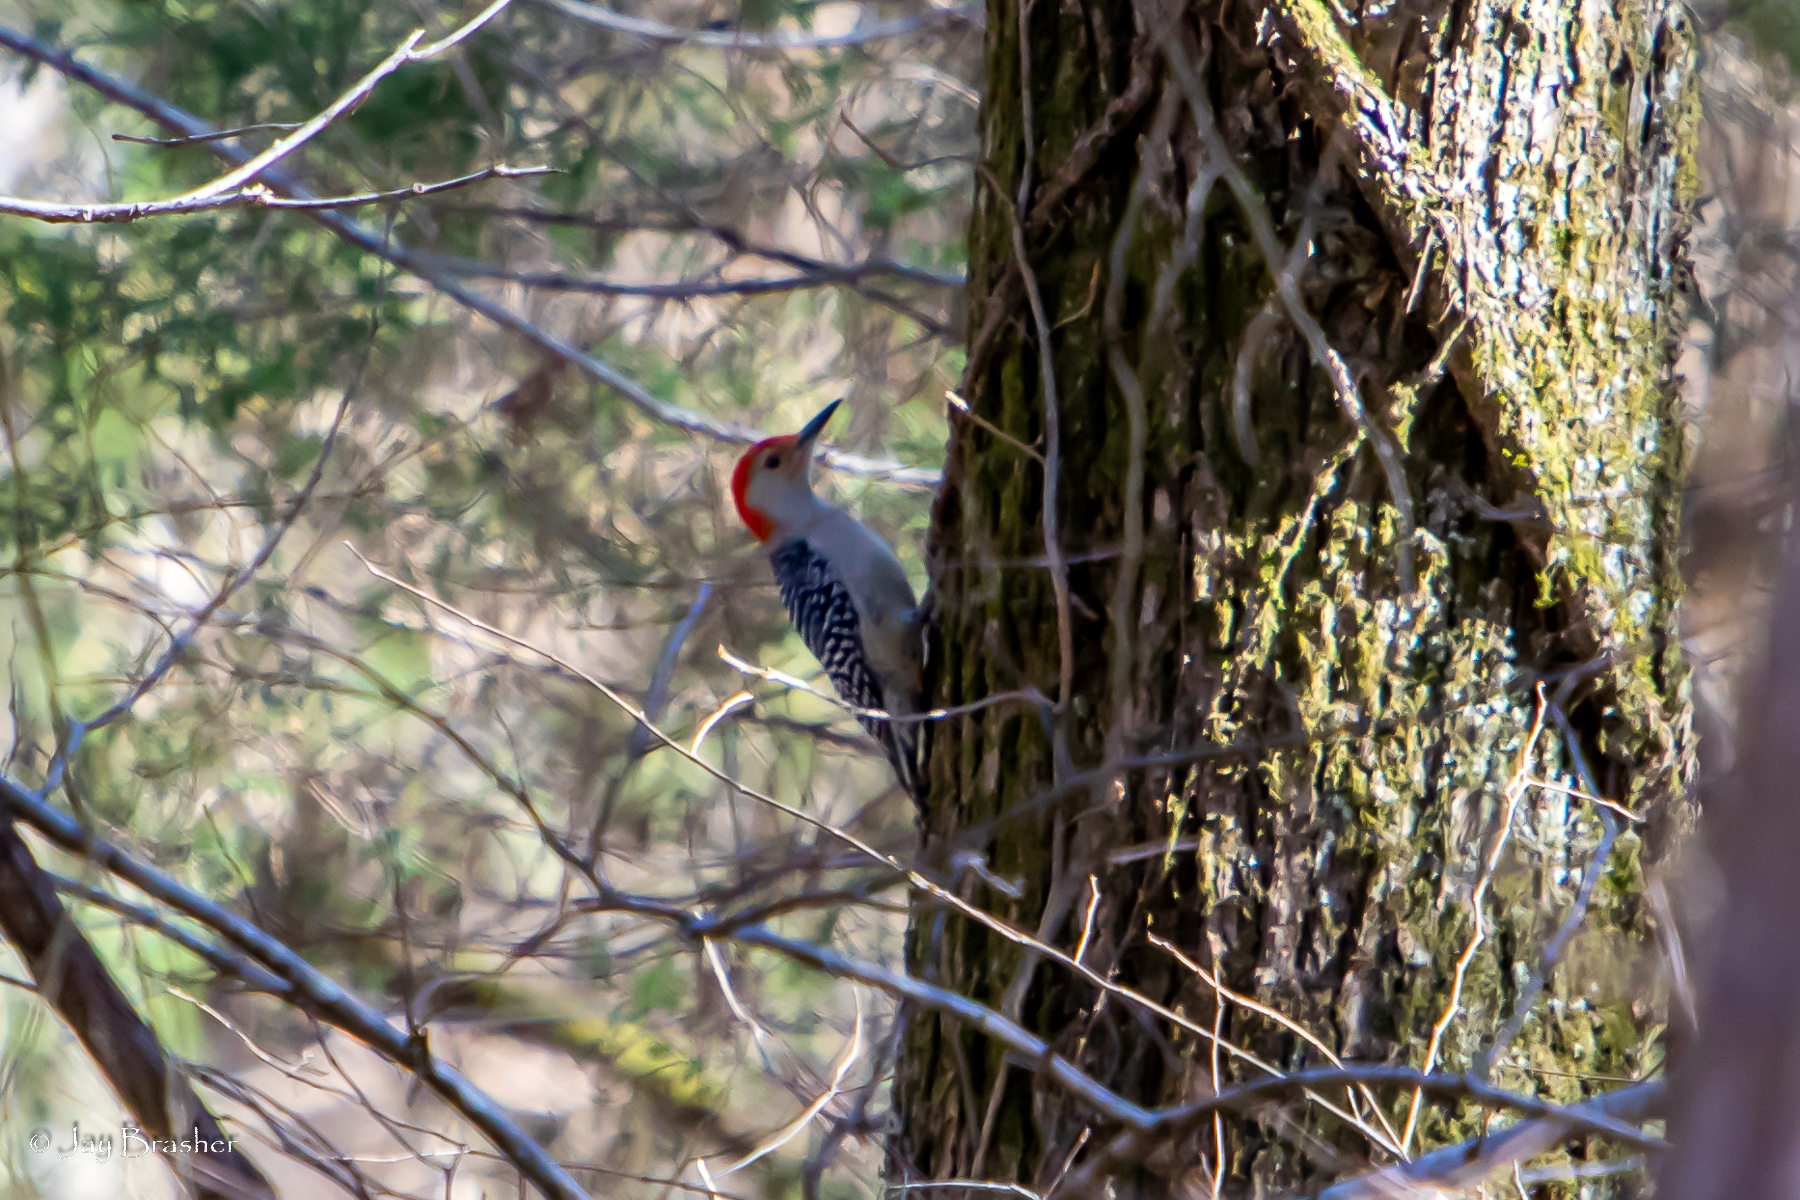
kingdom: Animalia
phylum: Chordata
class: Aves
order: Piciformes
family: Picidae
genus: Melanerpes
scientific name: Melanerpes carolinus
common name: Red-bellied woodpecker
